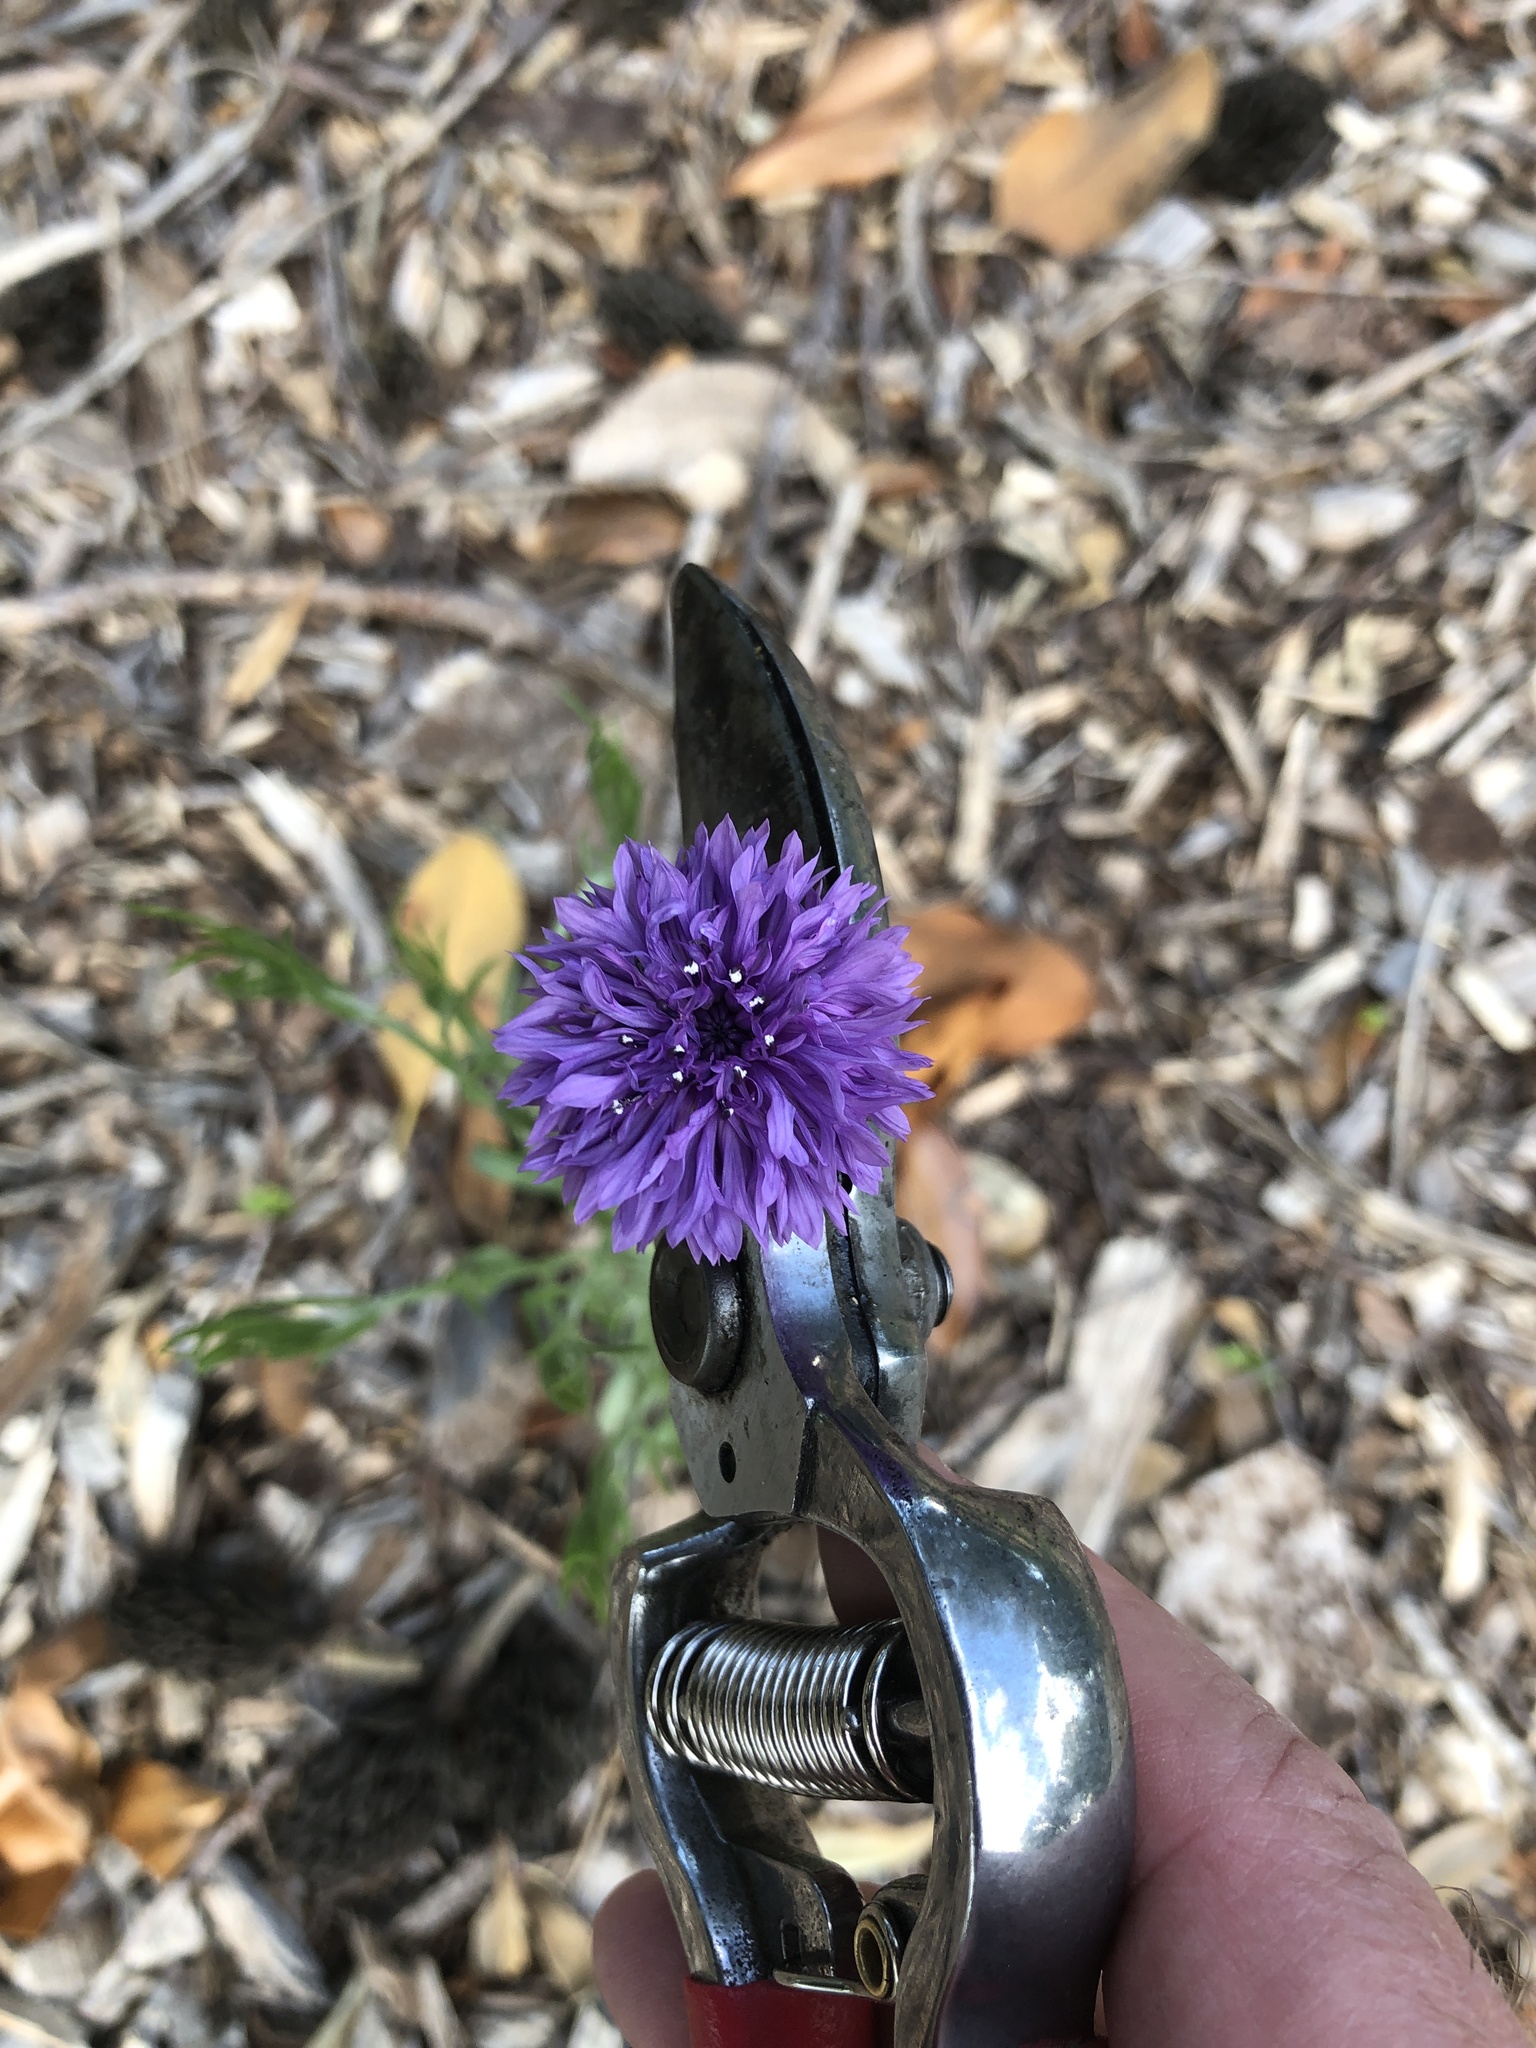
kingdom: Plantae
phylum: Tracheophyta
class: Magnoliopsida
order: Asterales
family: Asteraceae
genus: Centaurea
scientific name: Centaurea cyanus
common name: Cornflower
